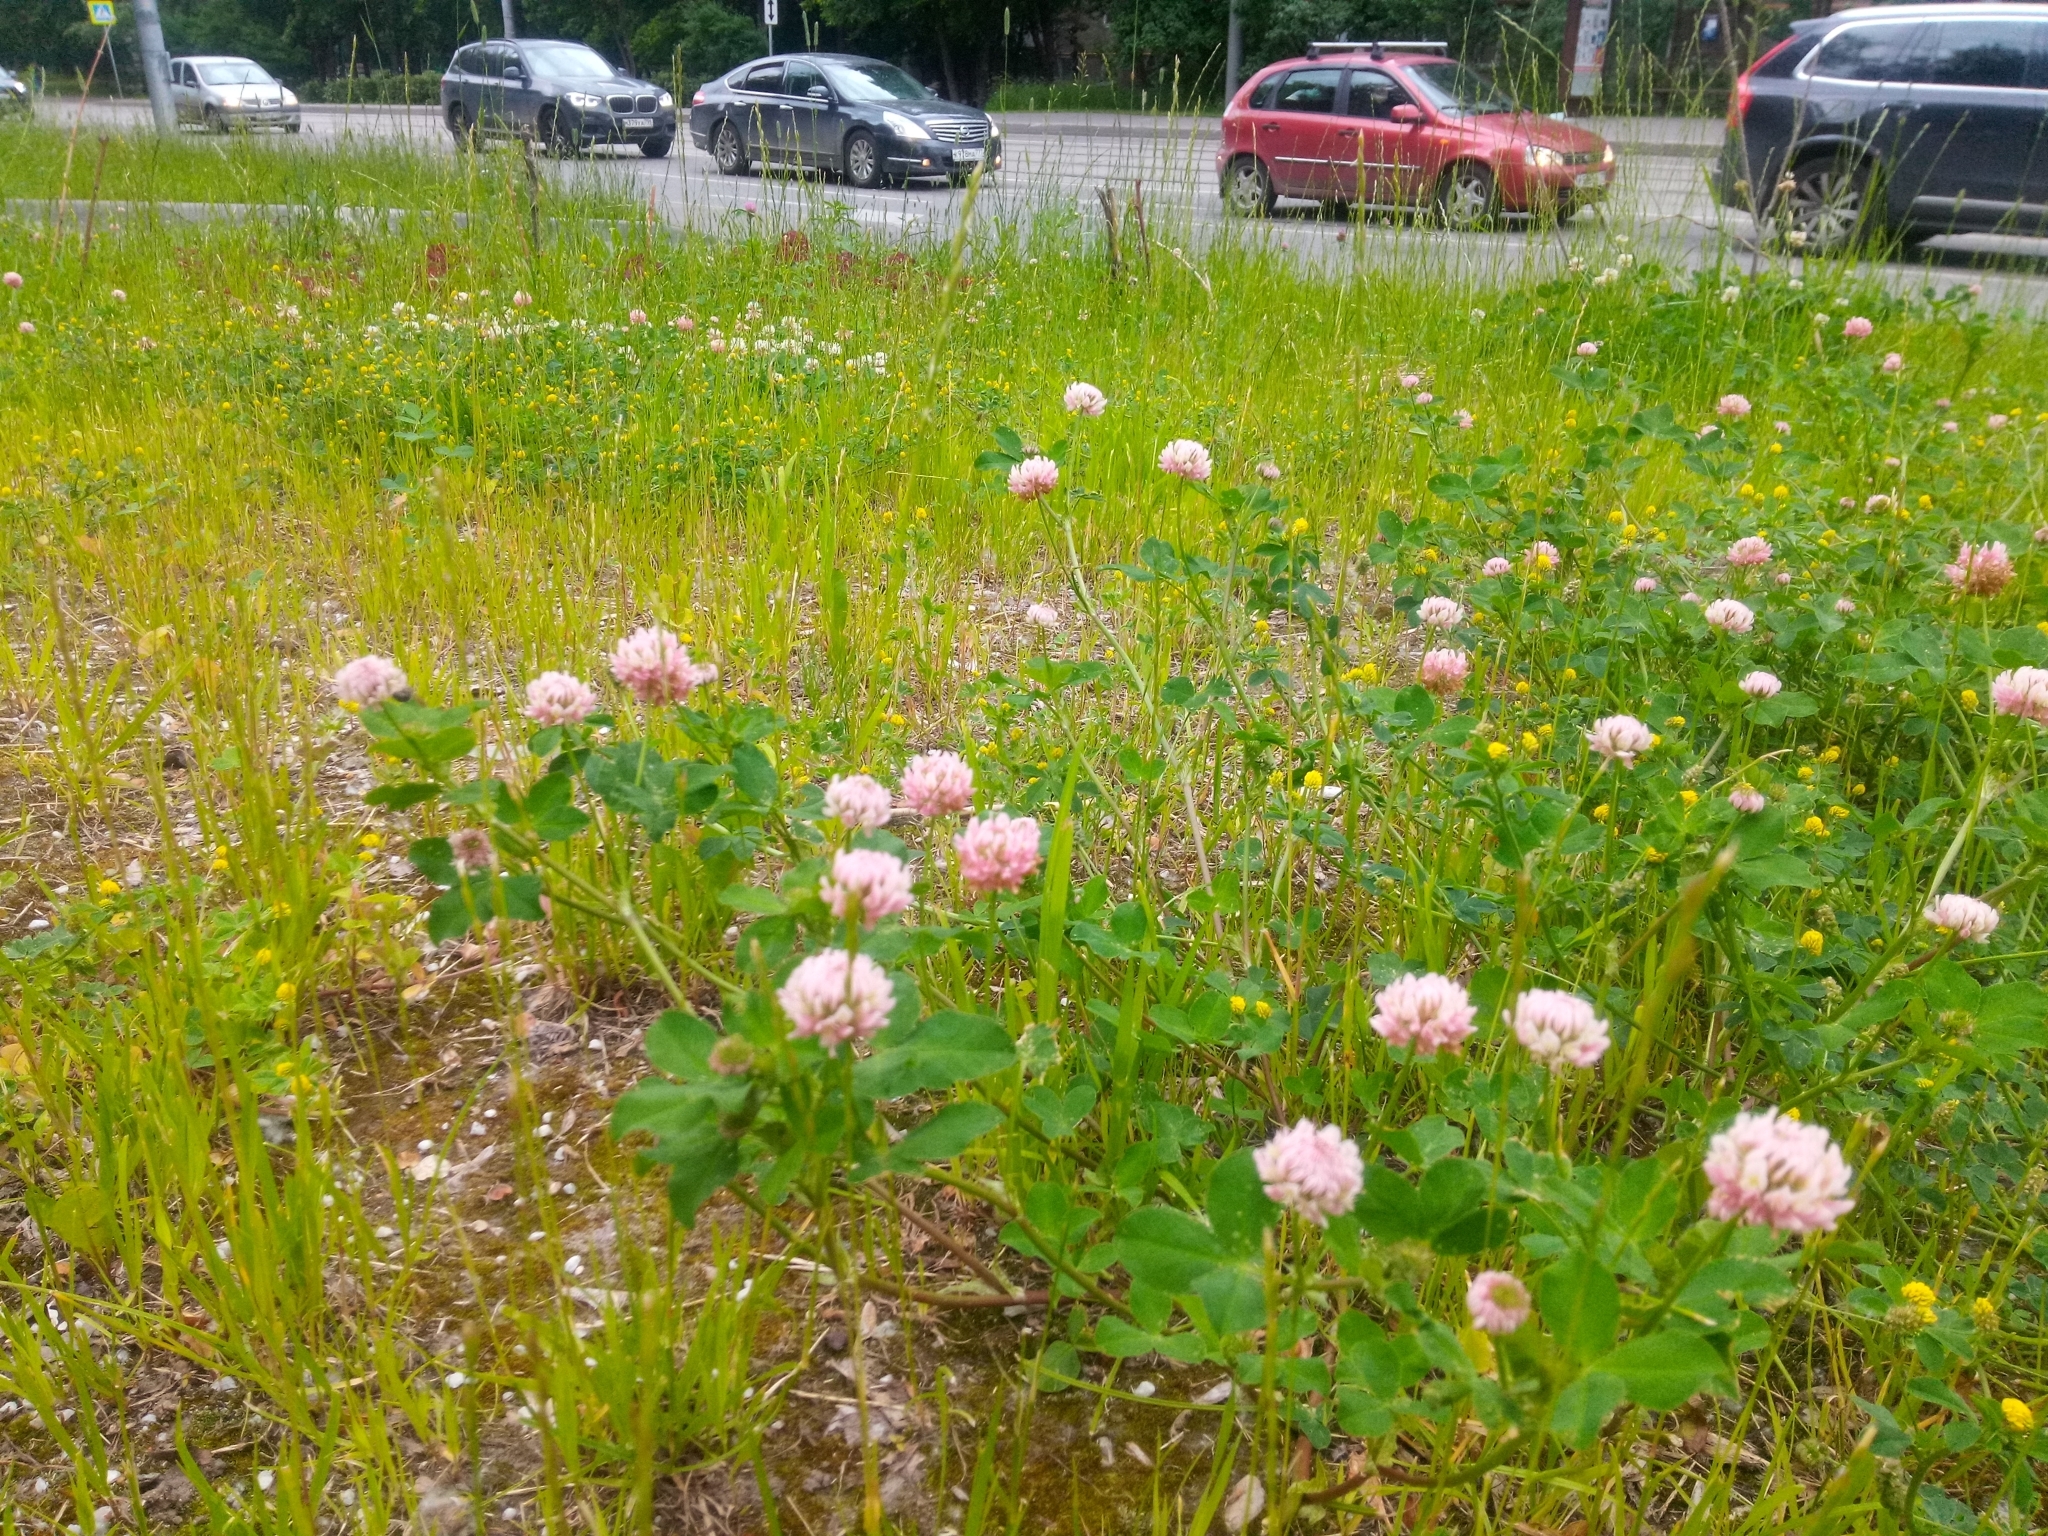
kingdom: Plantae
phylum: Tracheophyta
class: Magnoliopsida
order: Fabales
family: Fabaceae
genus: Trifolium
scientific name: Trifolium hybridum
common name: Alsike clover
